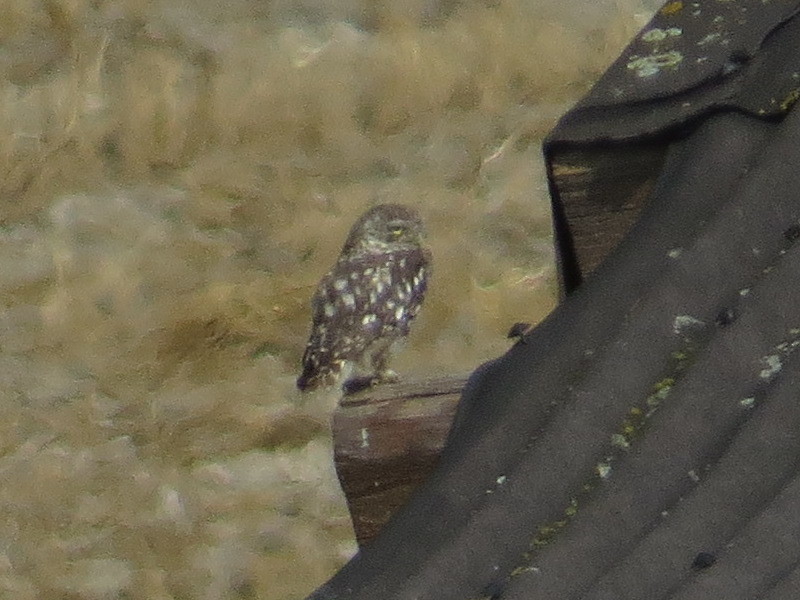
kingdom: Animalia
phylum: Chordata
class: Aves
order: Strigiformes
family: Strigidae
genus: Athene
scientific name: Athene noctua
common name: Little owl
